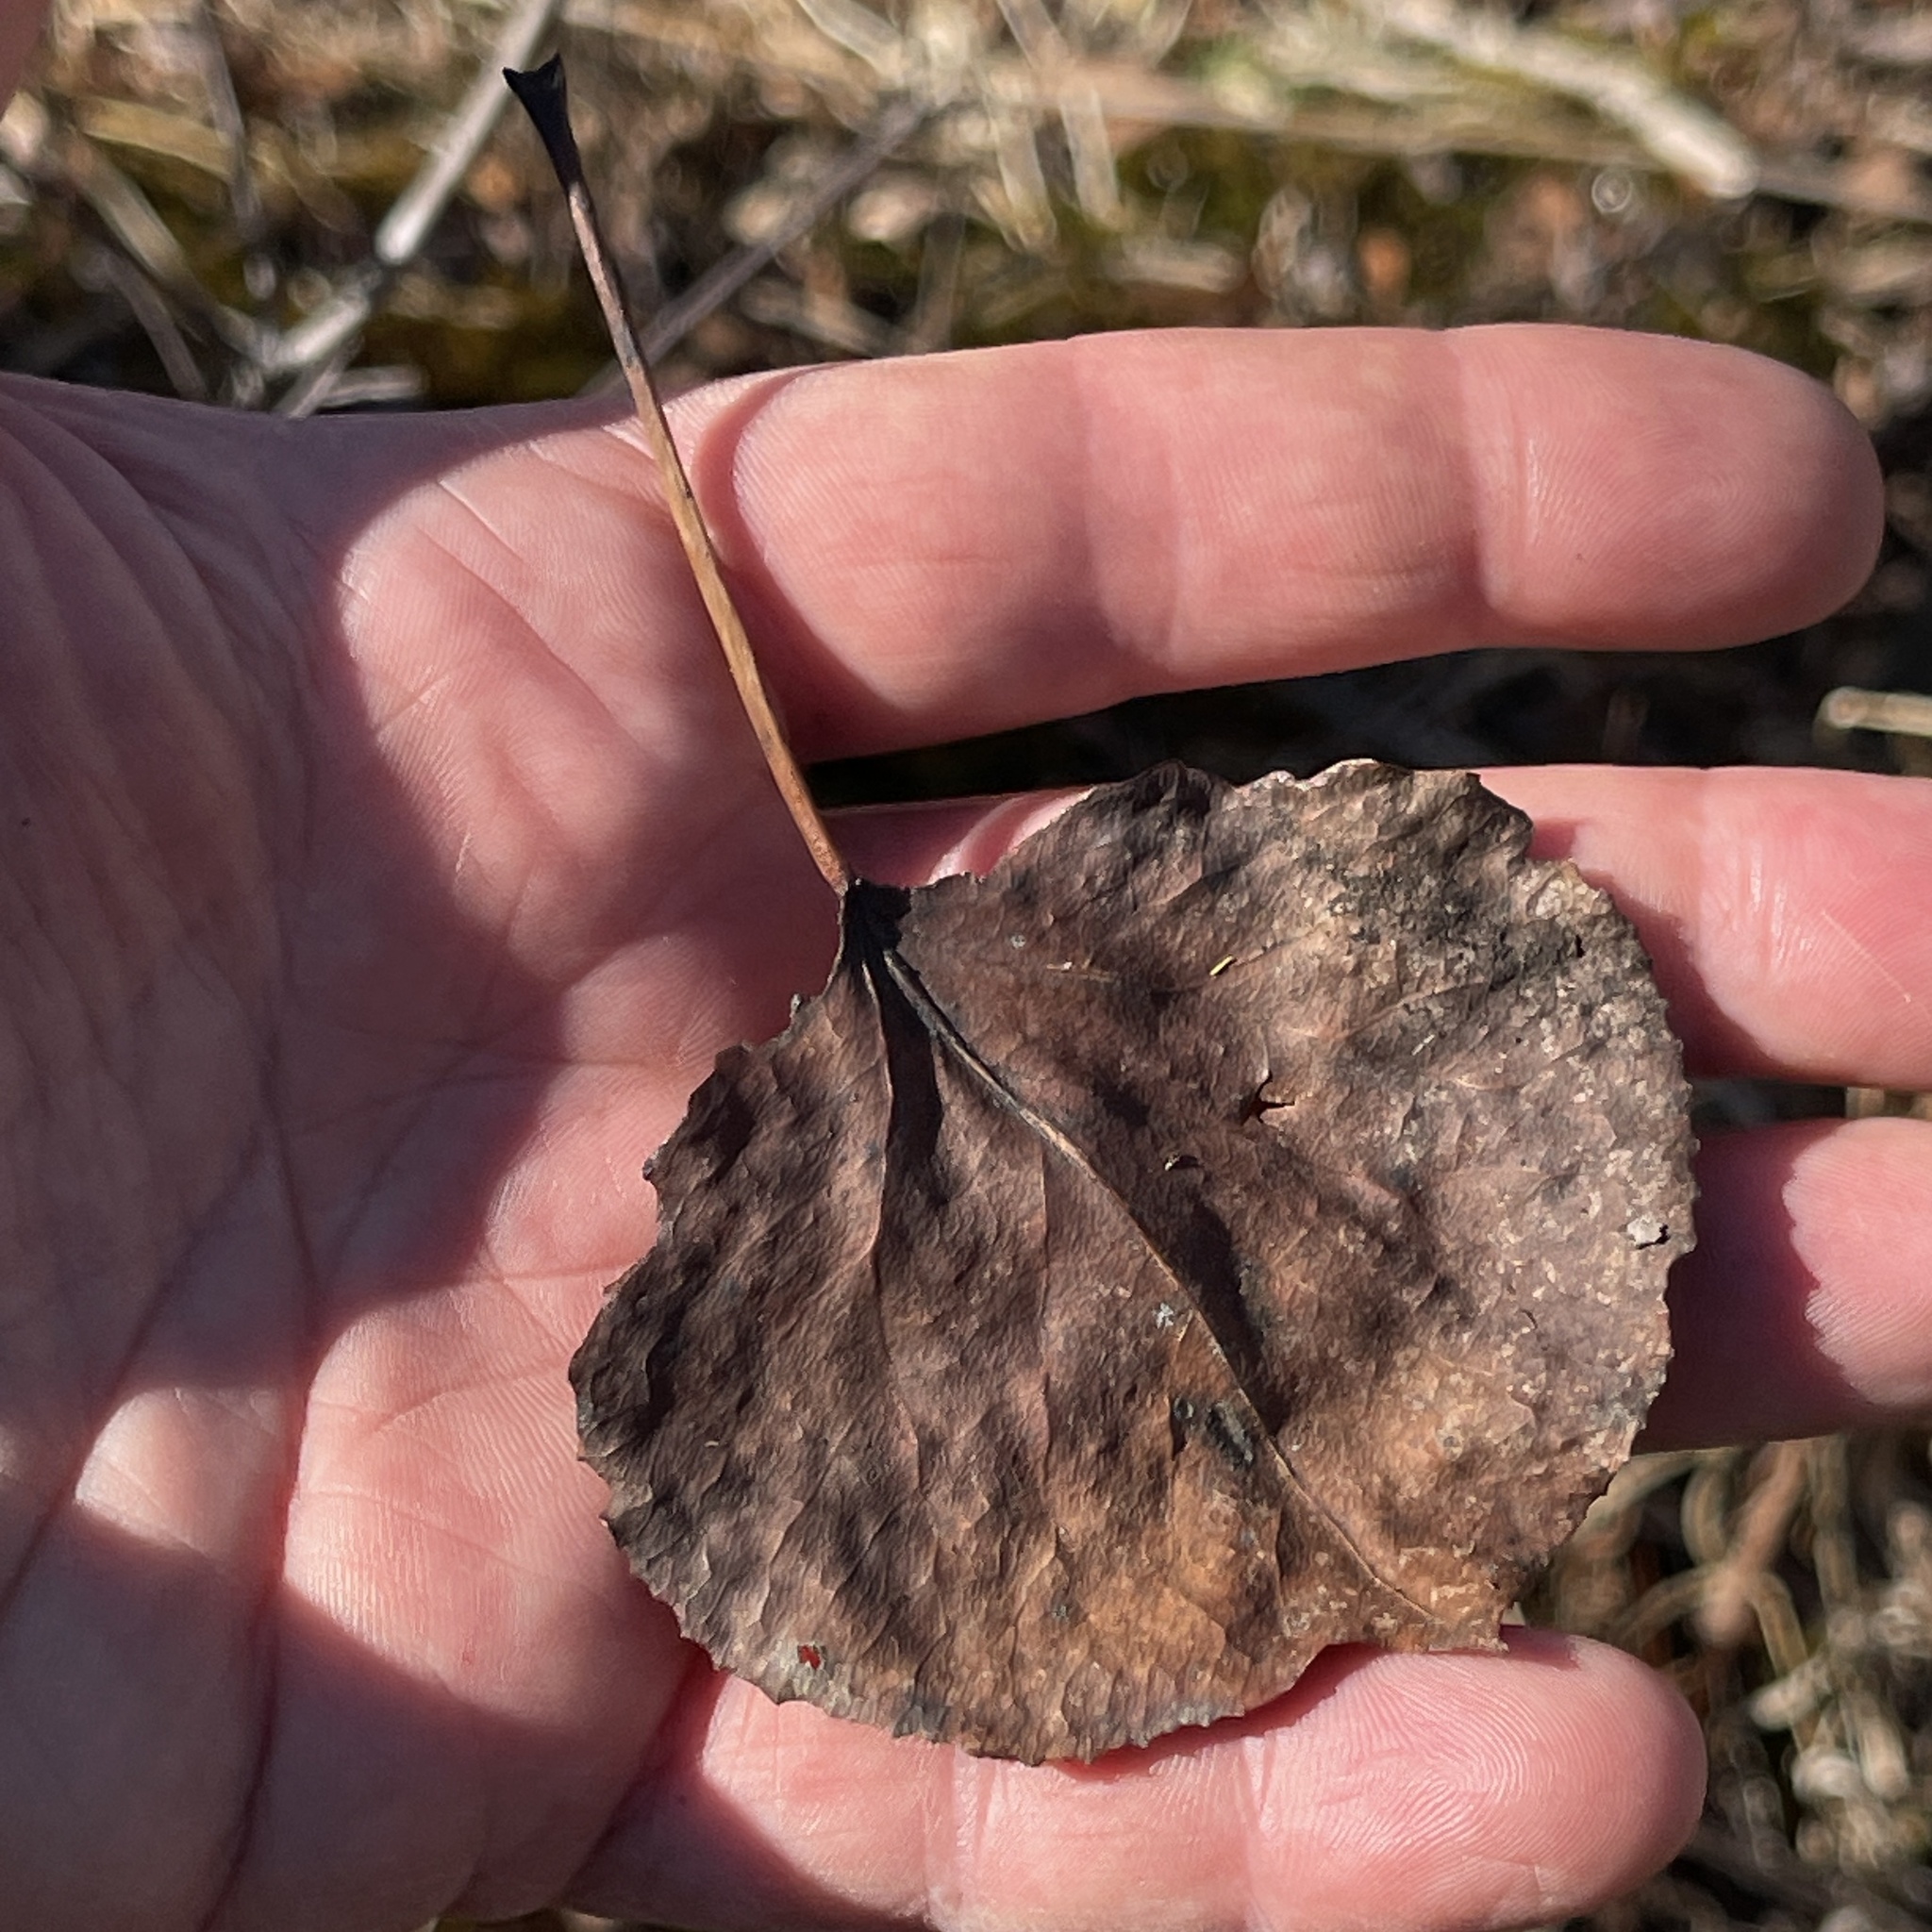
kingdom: Plantae
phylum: Tracheophyta
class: Magnoliopsida
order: Malpighiales
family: Salicaceae
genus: Populus
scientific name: Populus tremuloides
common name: Quaking aspen
